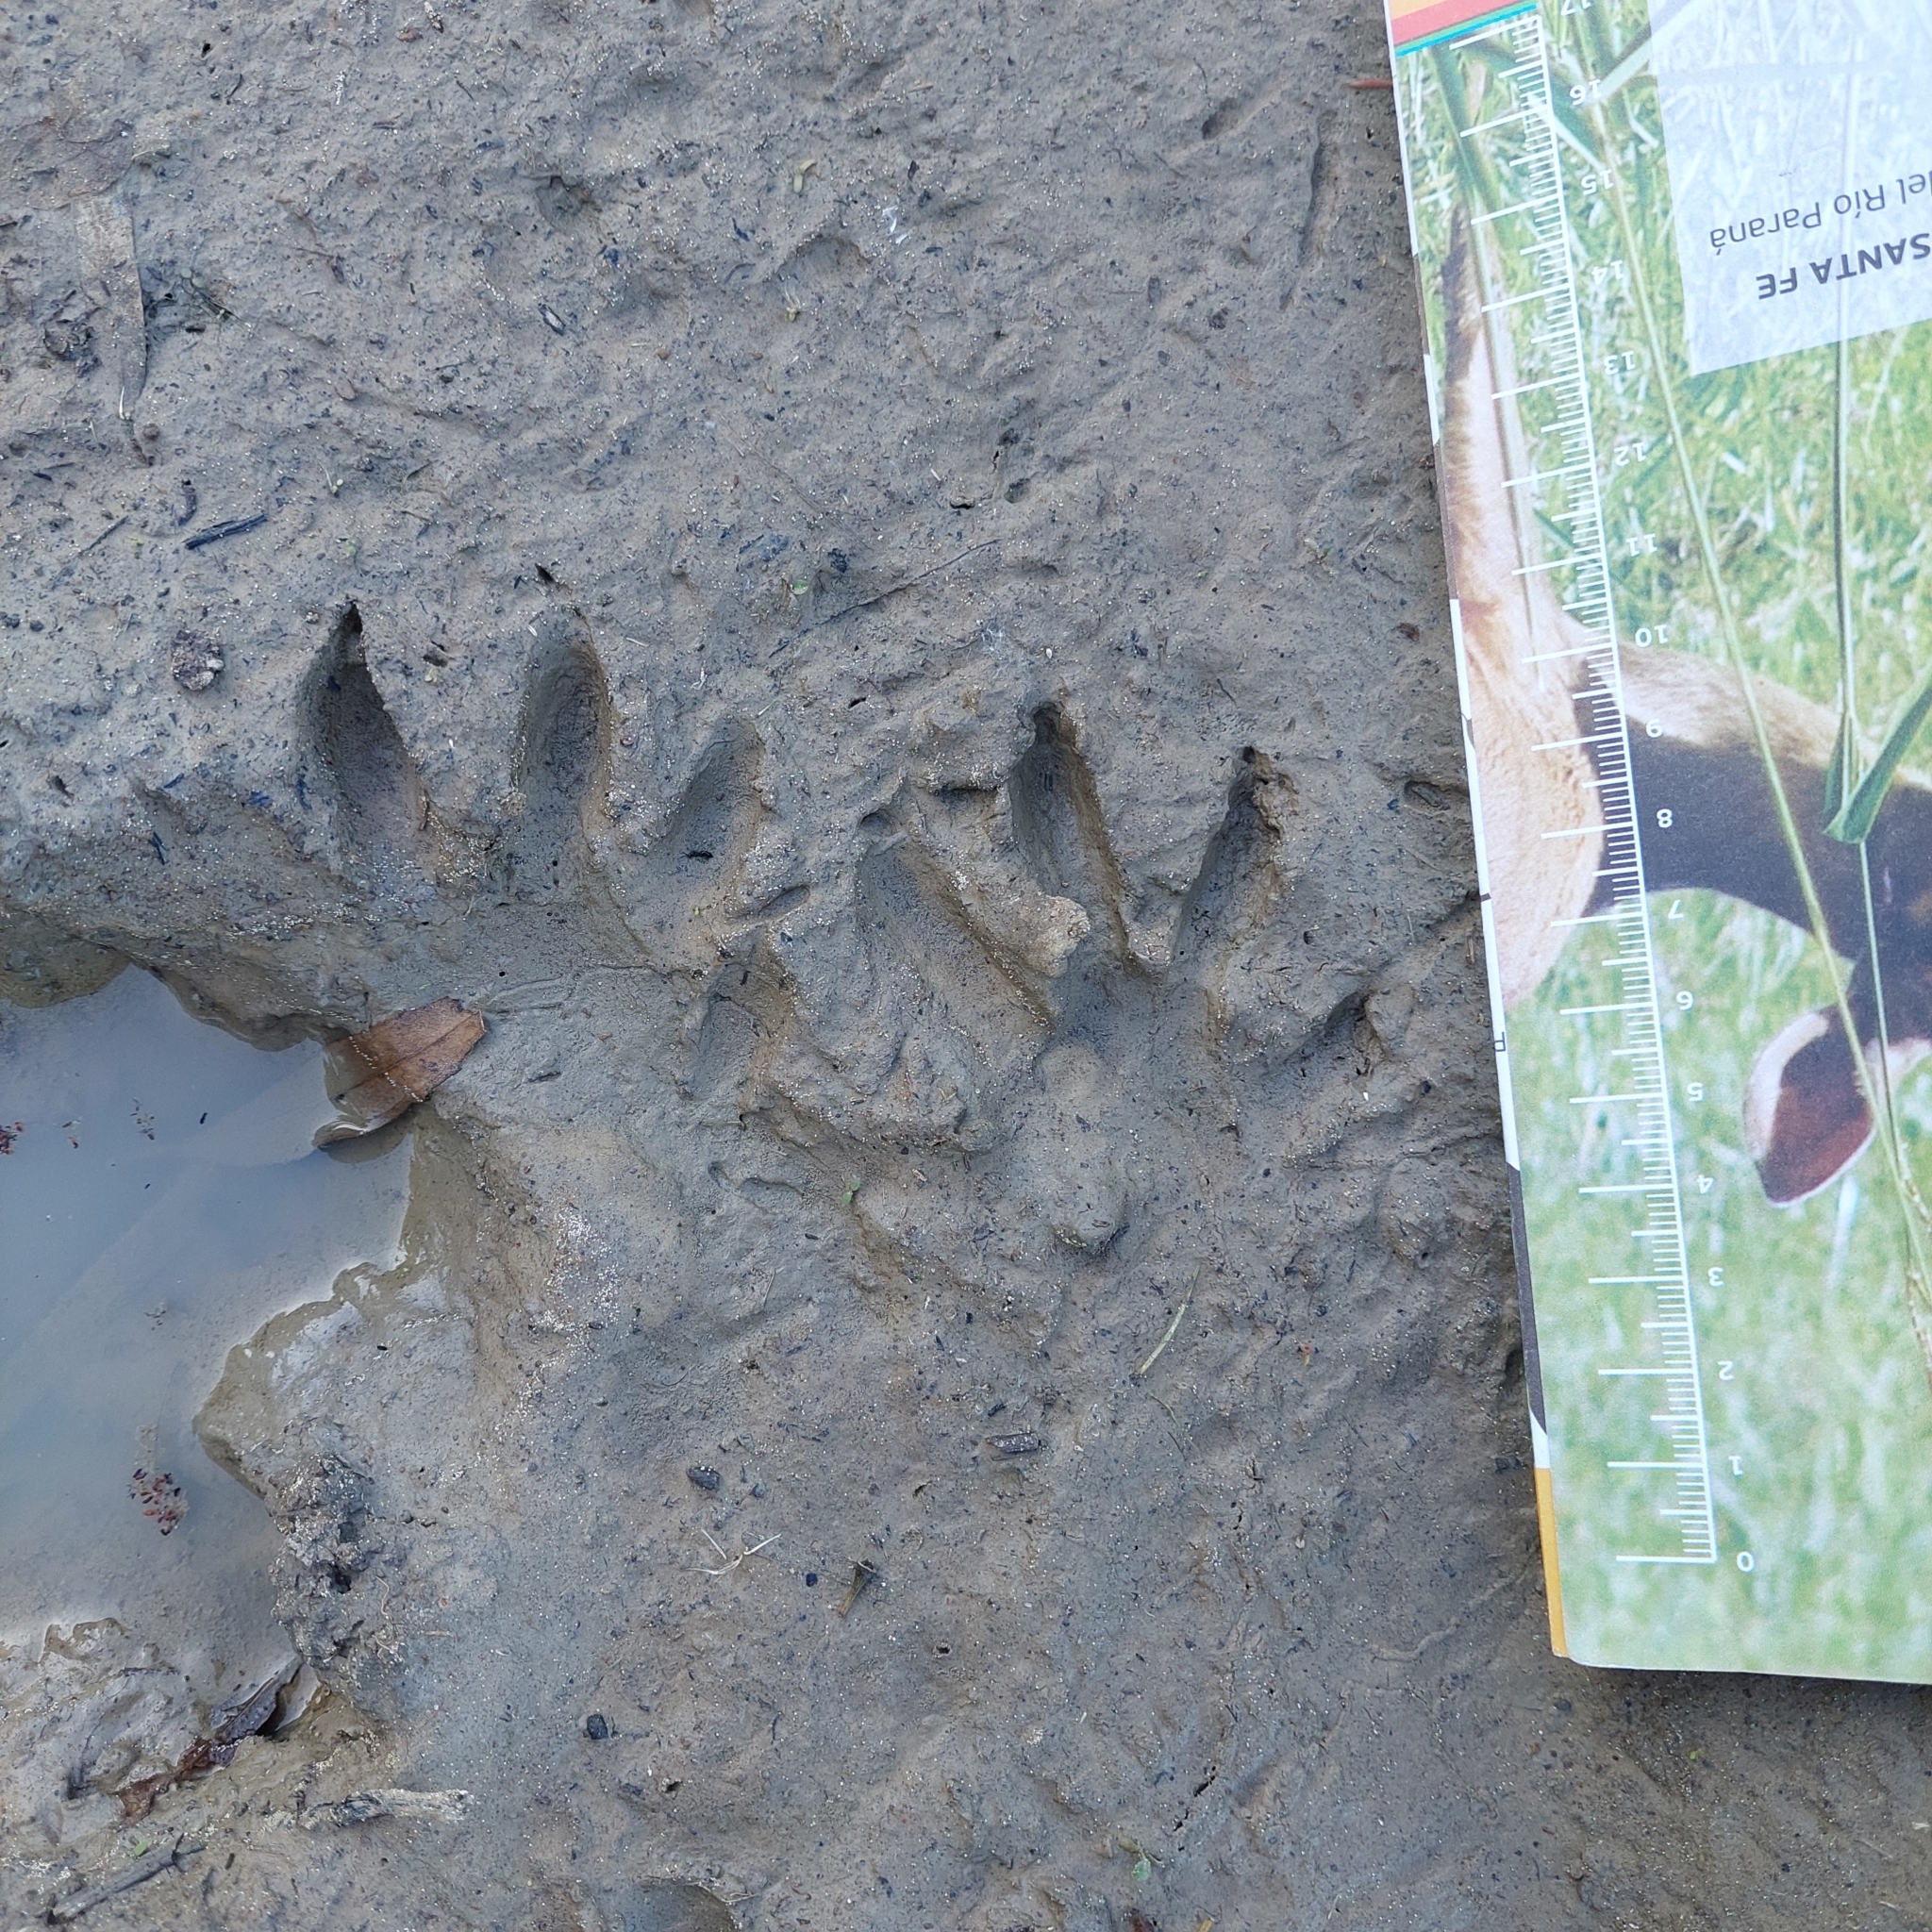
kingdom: Animalia
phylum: Chordata
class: Mammalia
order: Carnivora
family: Procyonidae
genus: Procyon
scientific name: Procyon cancrivorus
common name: Crab-eating raccoon
